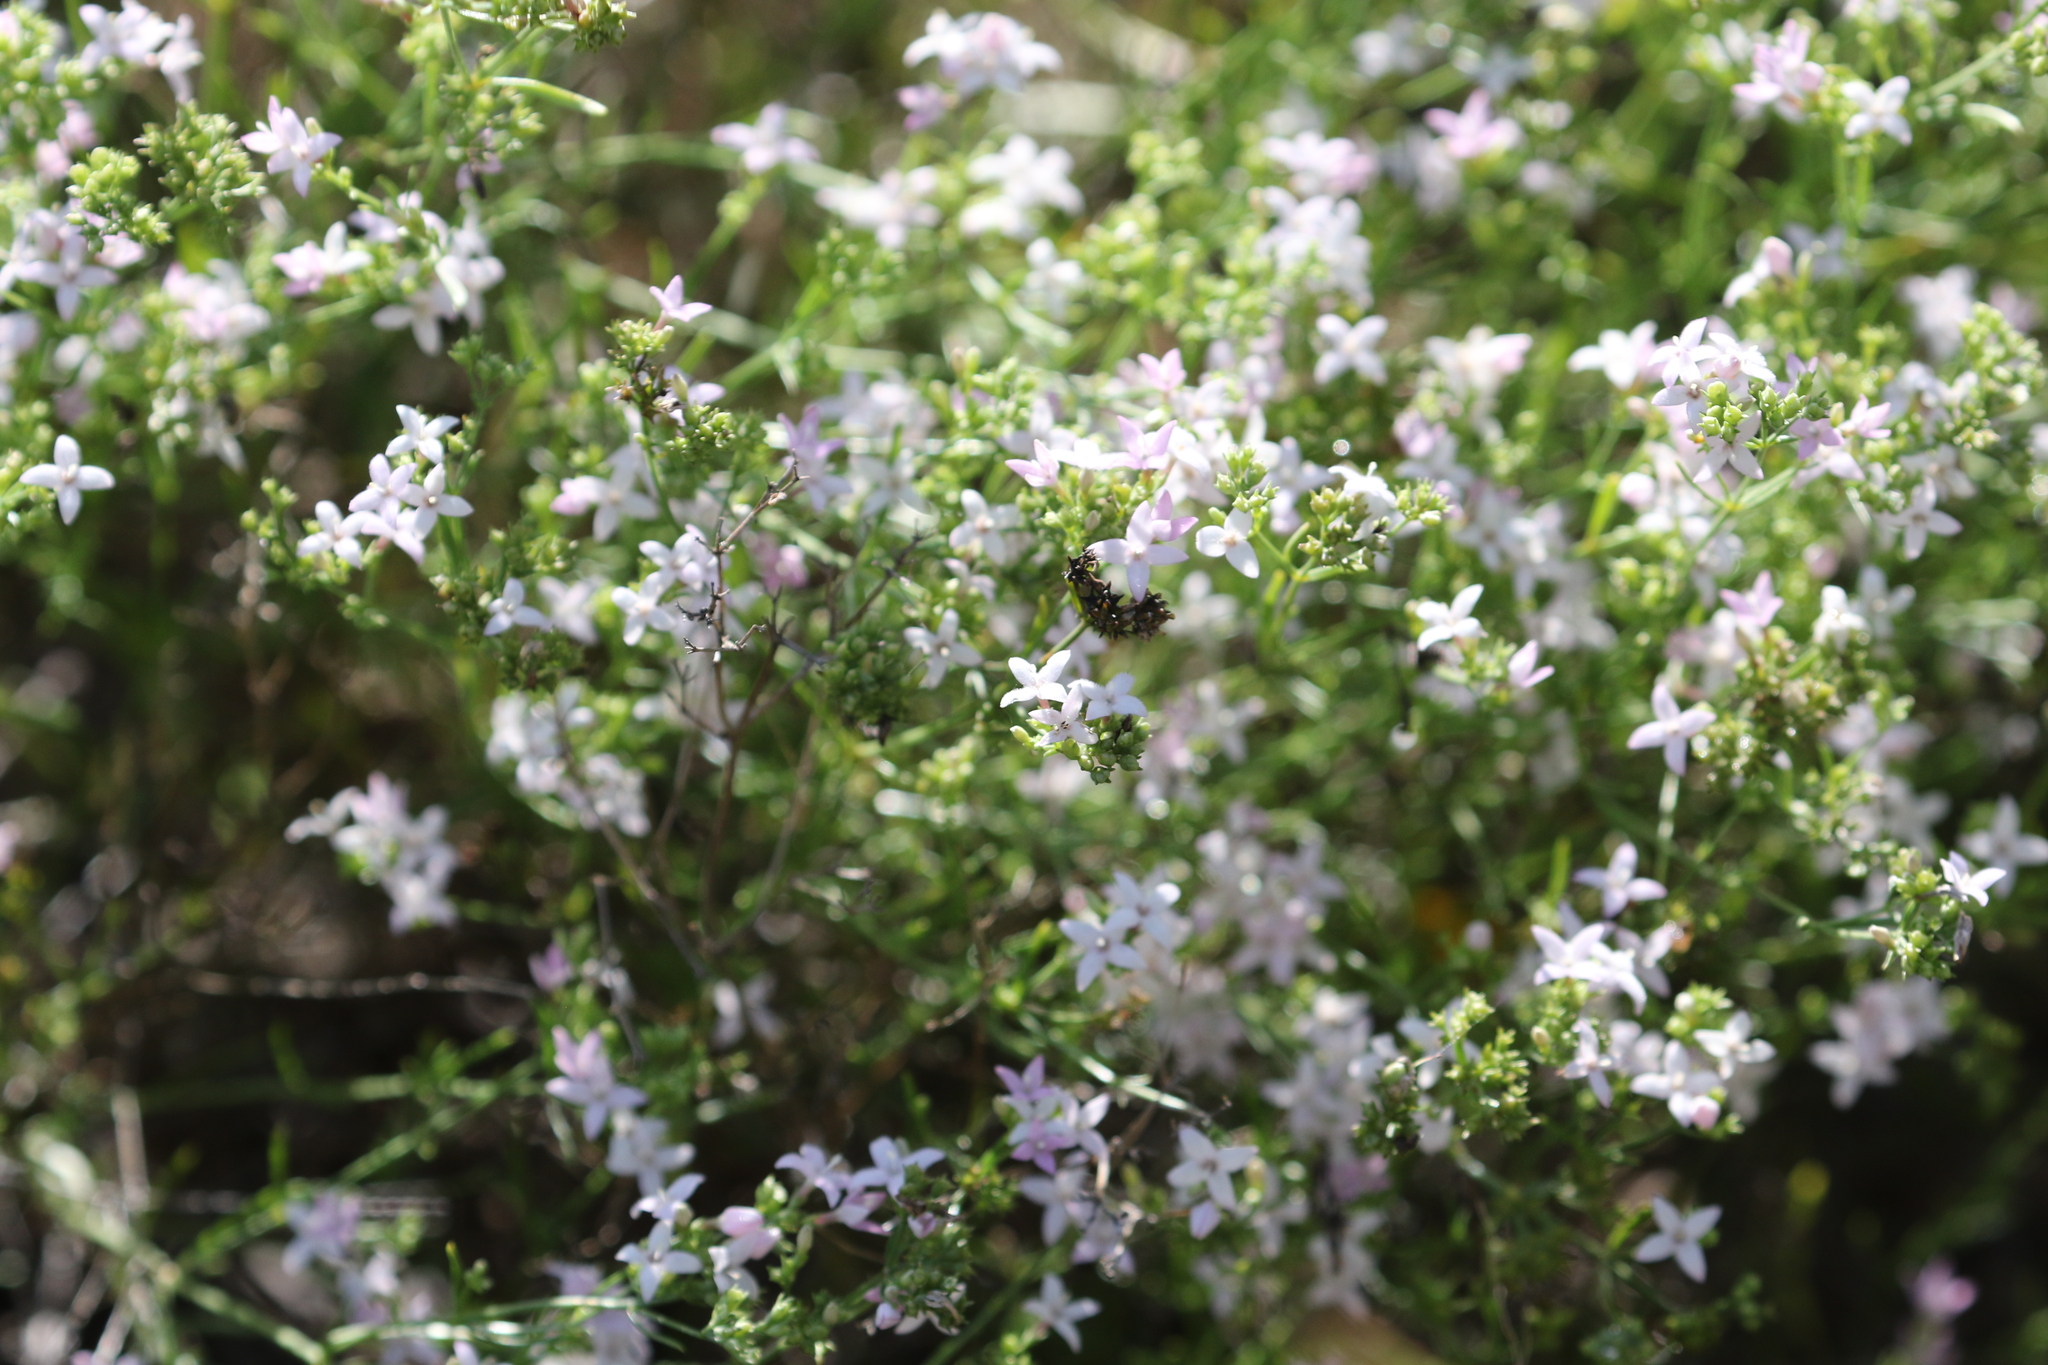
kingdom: Plantae
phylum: Tracheophyta
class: Magnoliopsida
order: Gentianales
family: Rubiaceae
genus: Stenaria
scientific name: Stenaria nigricans
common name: Diamondflowers
